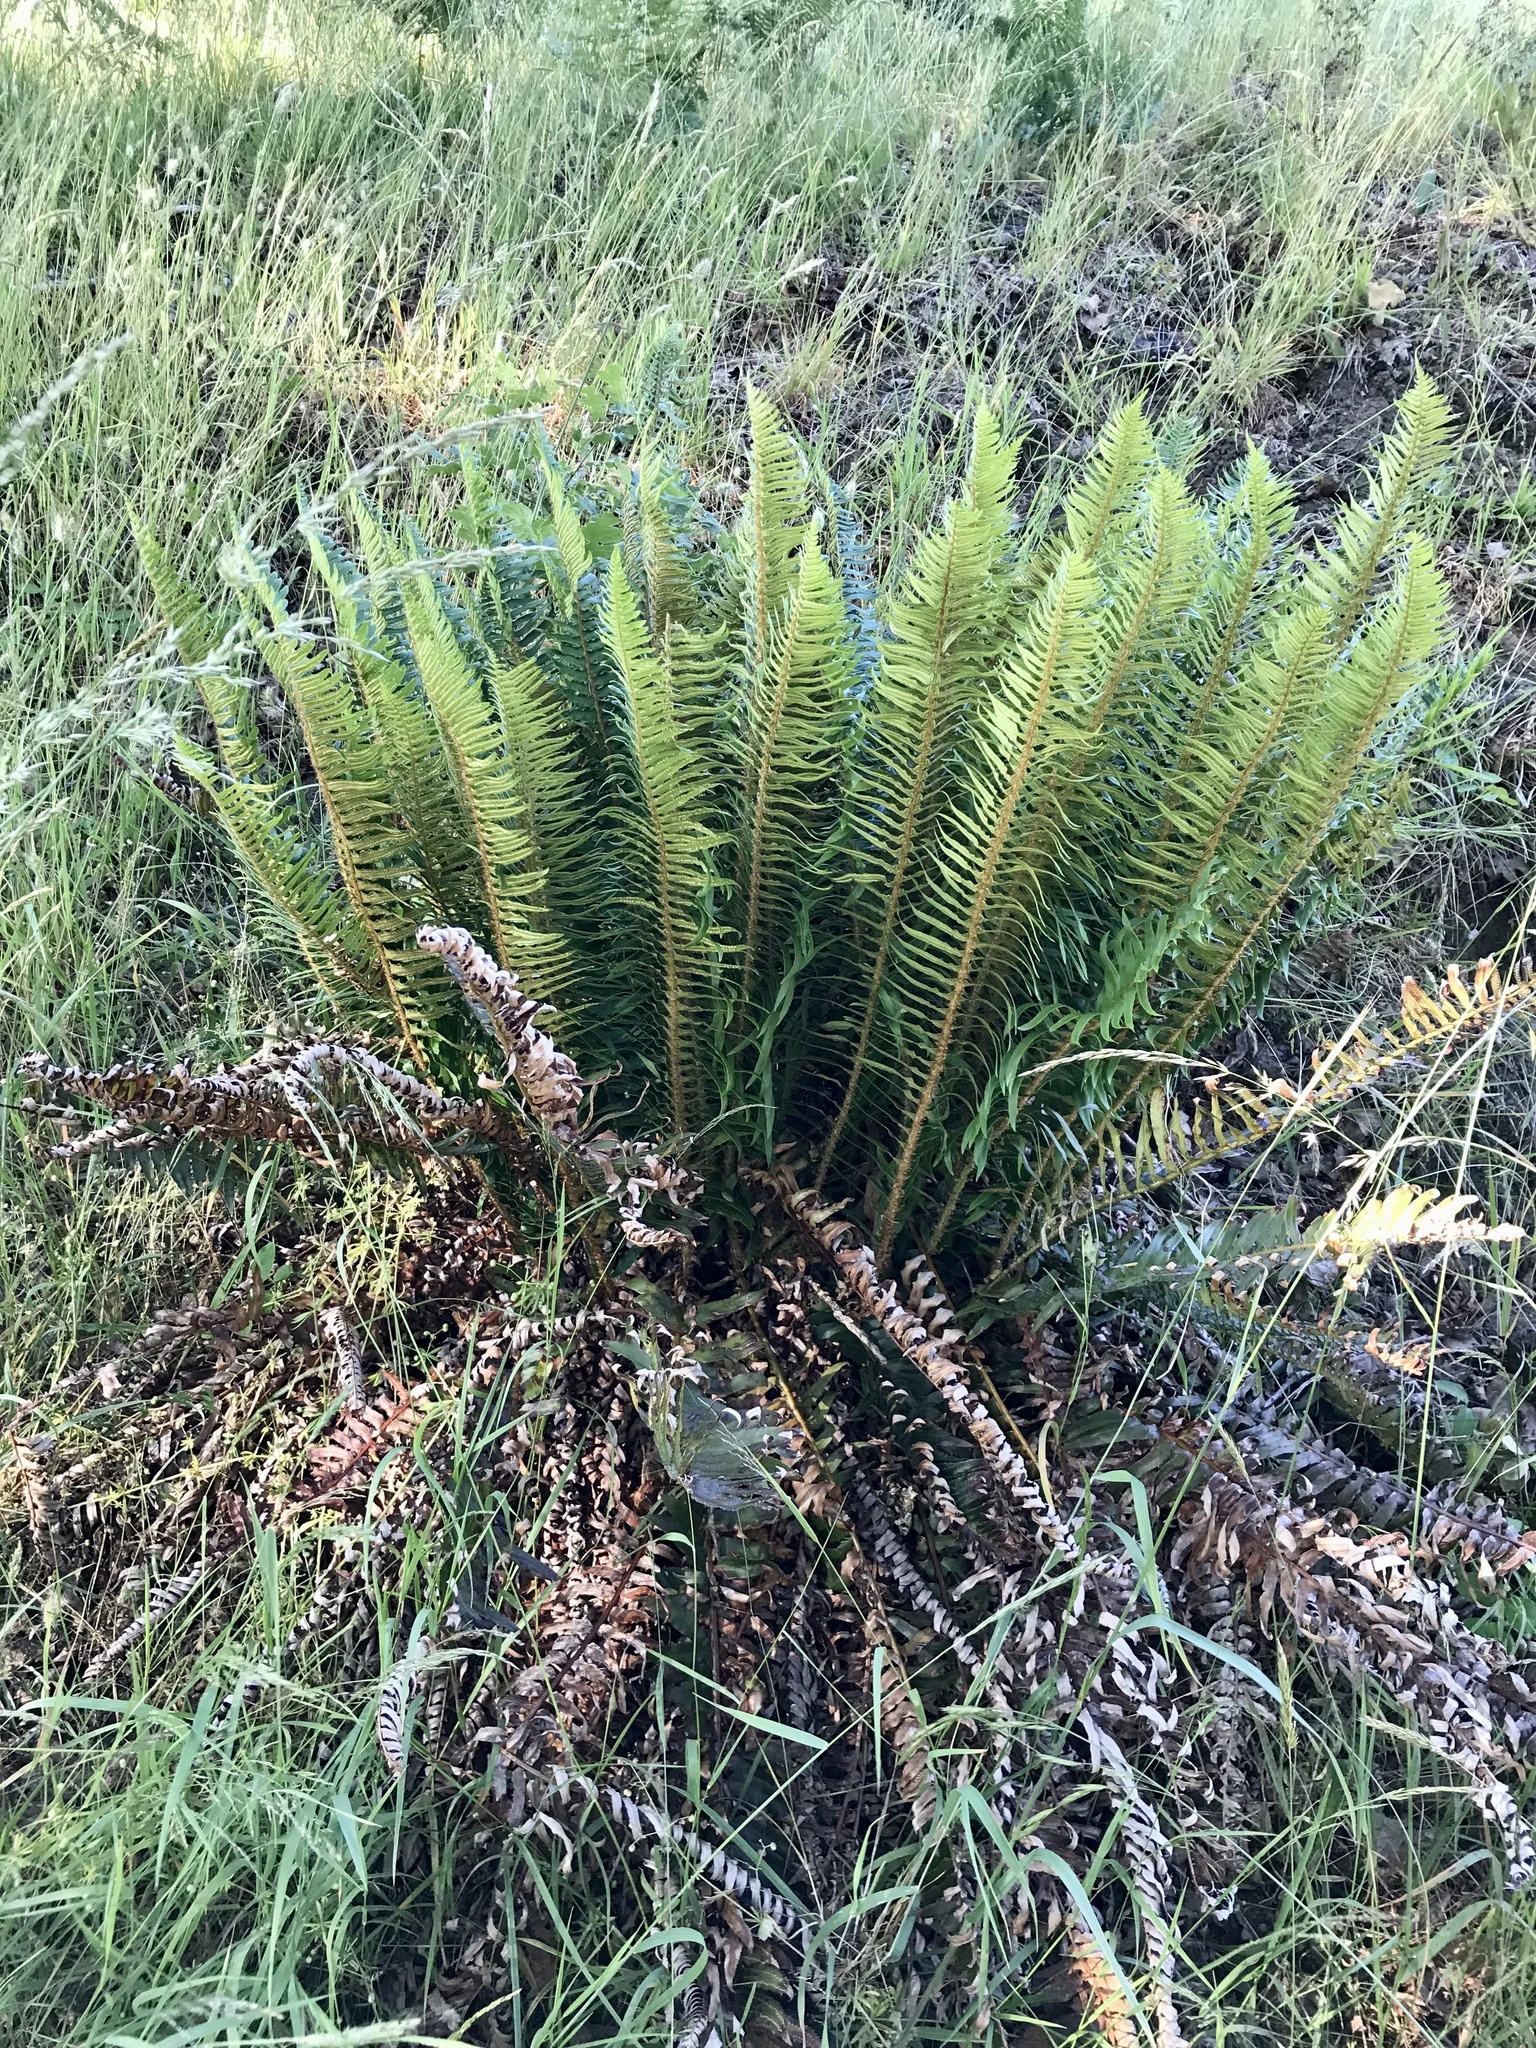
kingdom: Plantae
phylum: Tracheophyta
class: Polypodiopsida
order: Polypodiales
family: Dryopteridaceae
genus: Polystichum
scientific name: Polystichum munitum
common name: Western sword-fern
